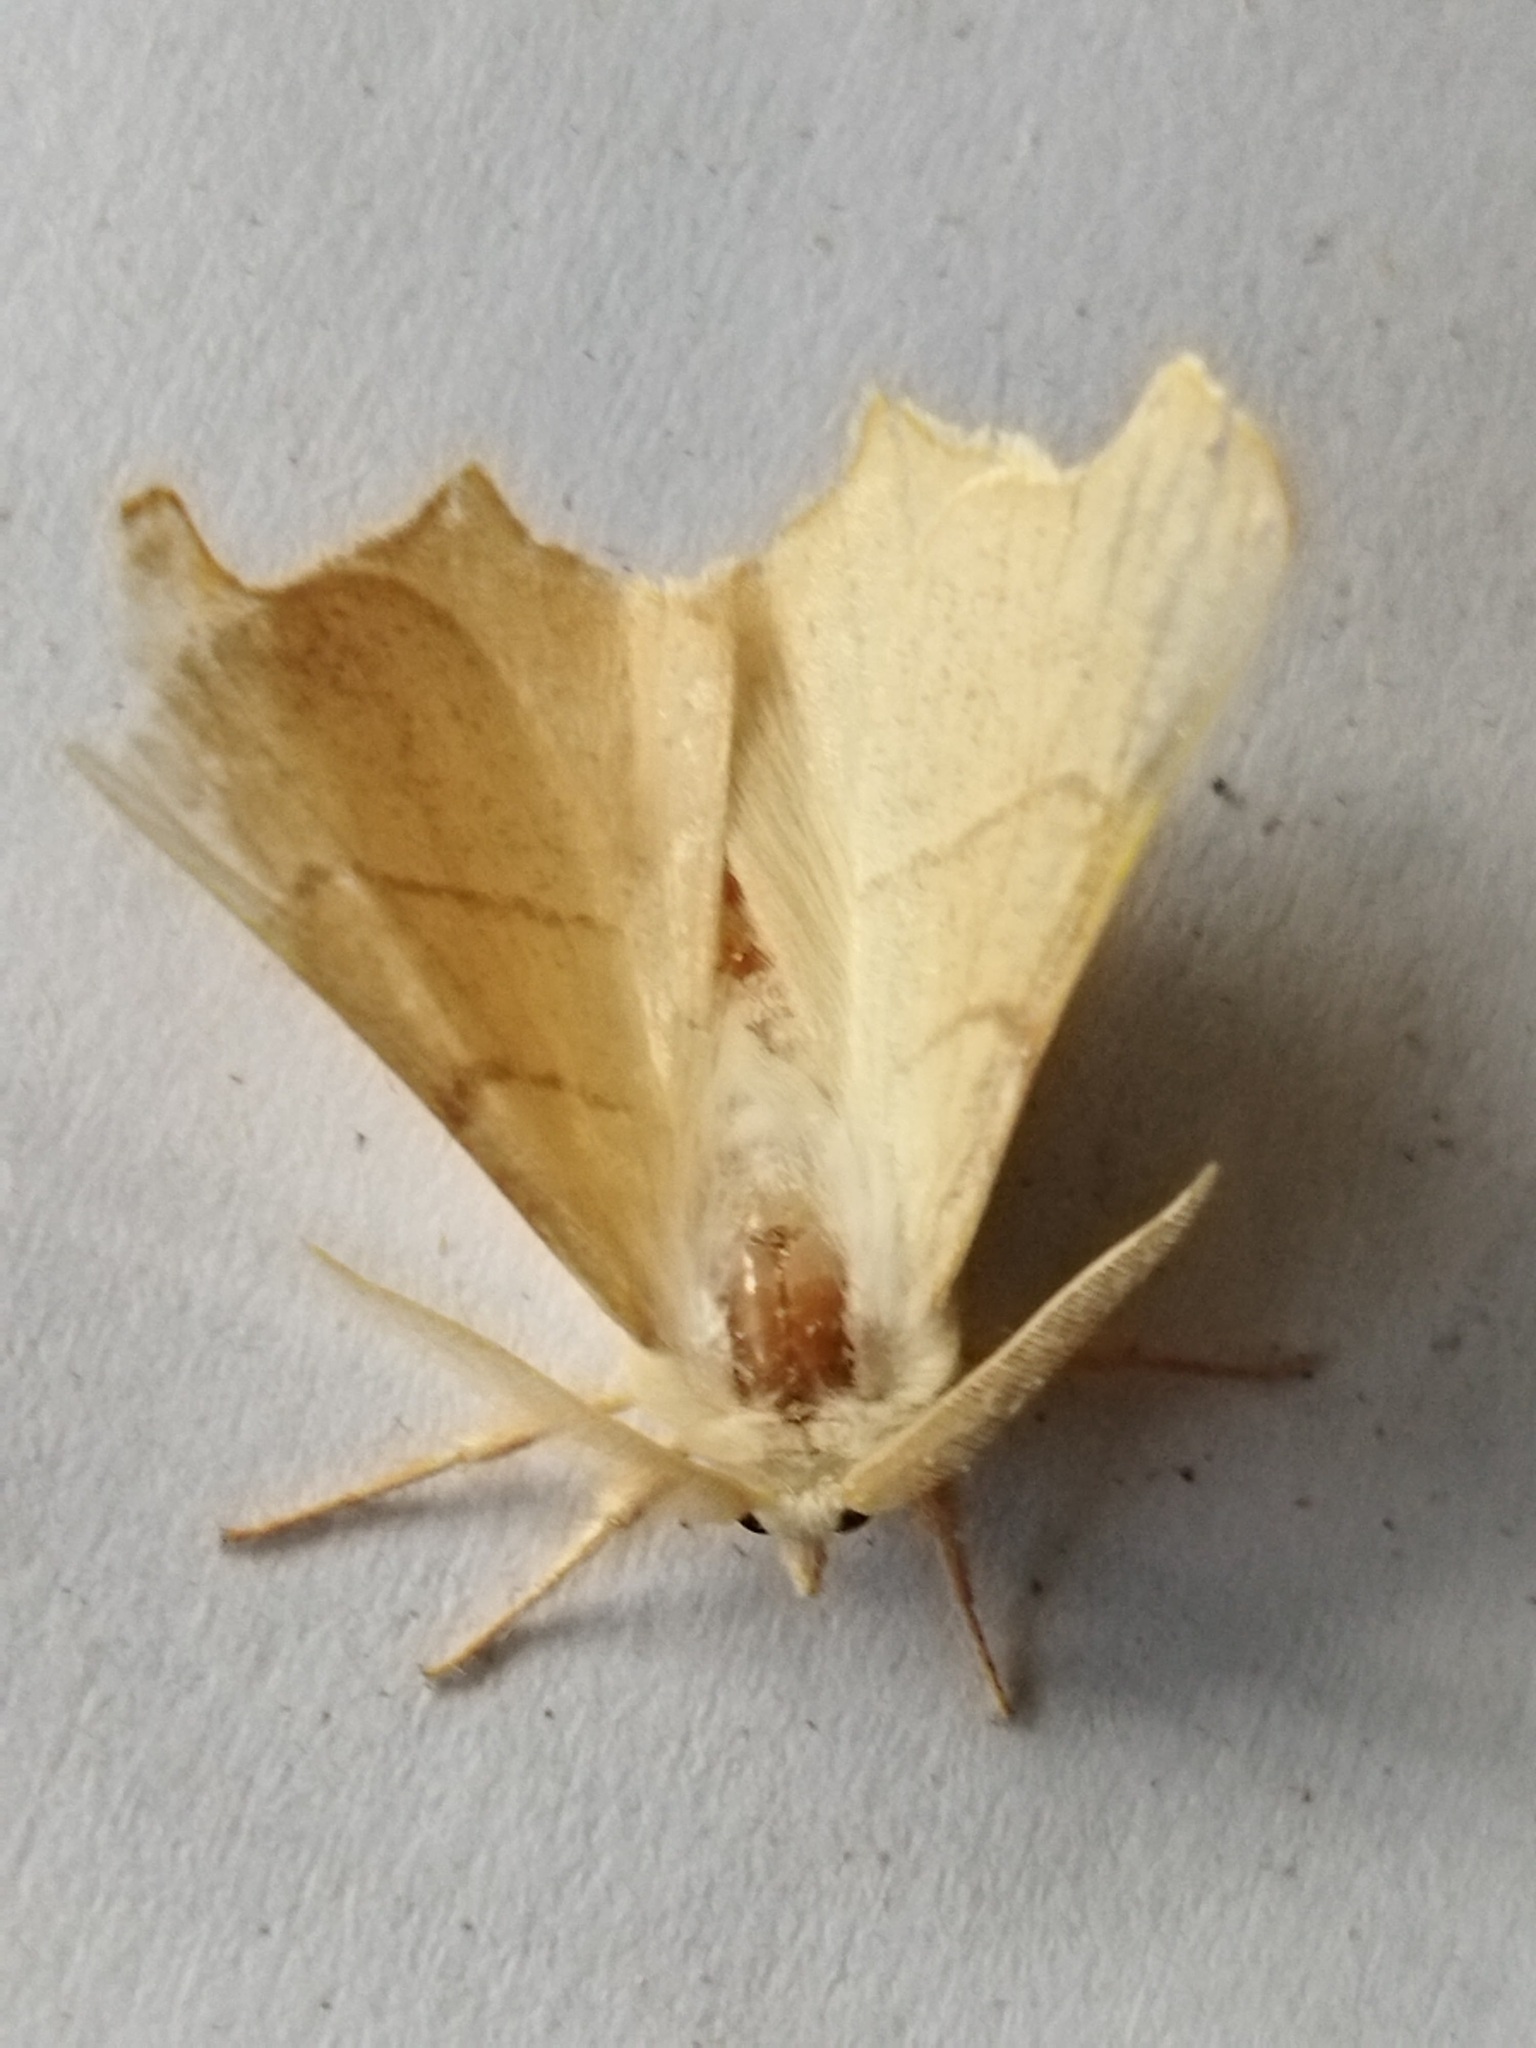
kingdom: Animalia
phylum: Arthropoda
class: Insecta
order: Lepidoptera
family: Geometridae
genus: Ennomos
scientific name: Ennomos erosaria
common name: September thorn
